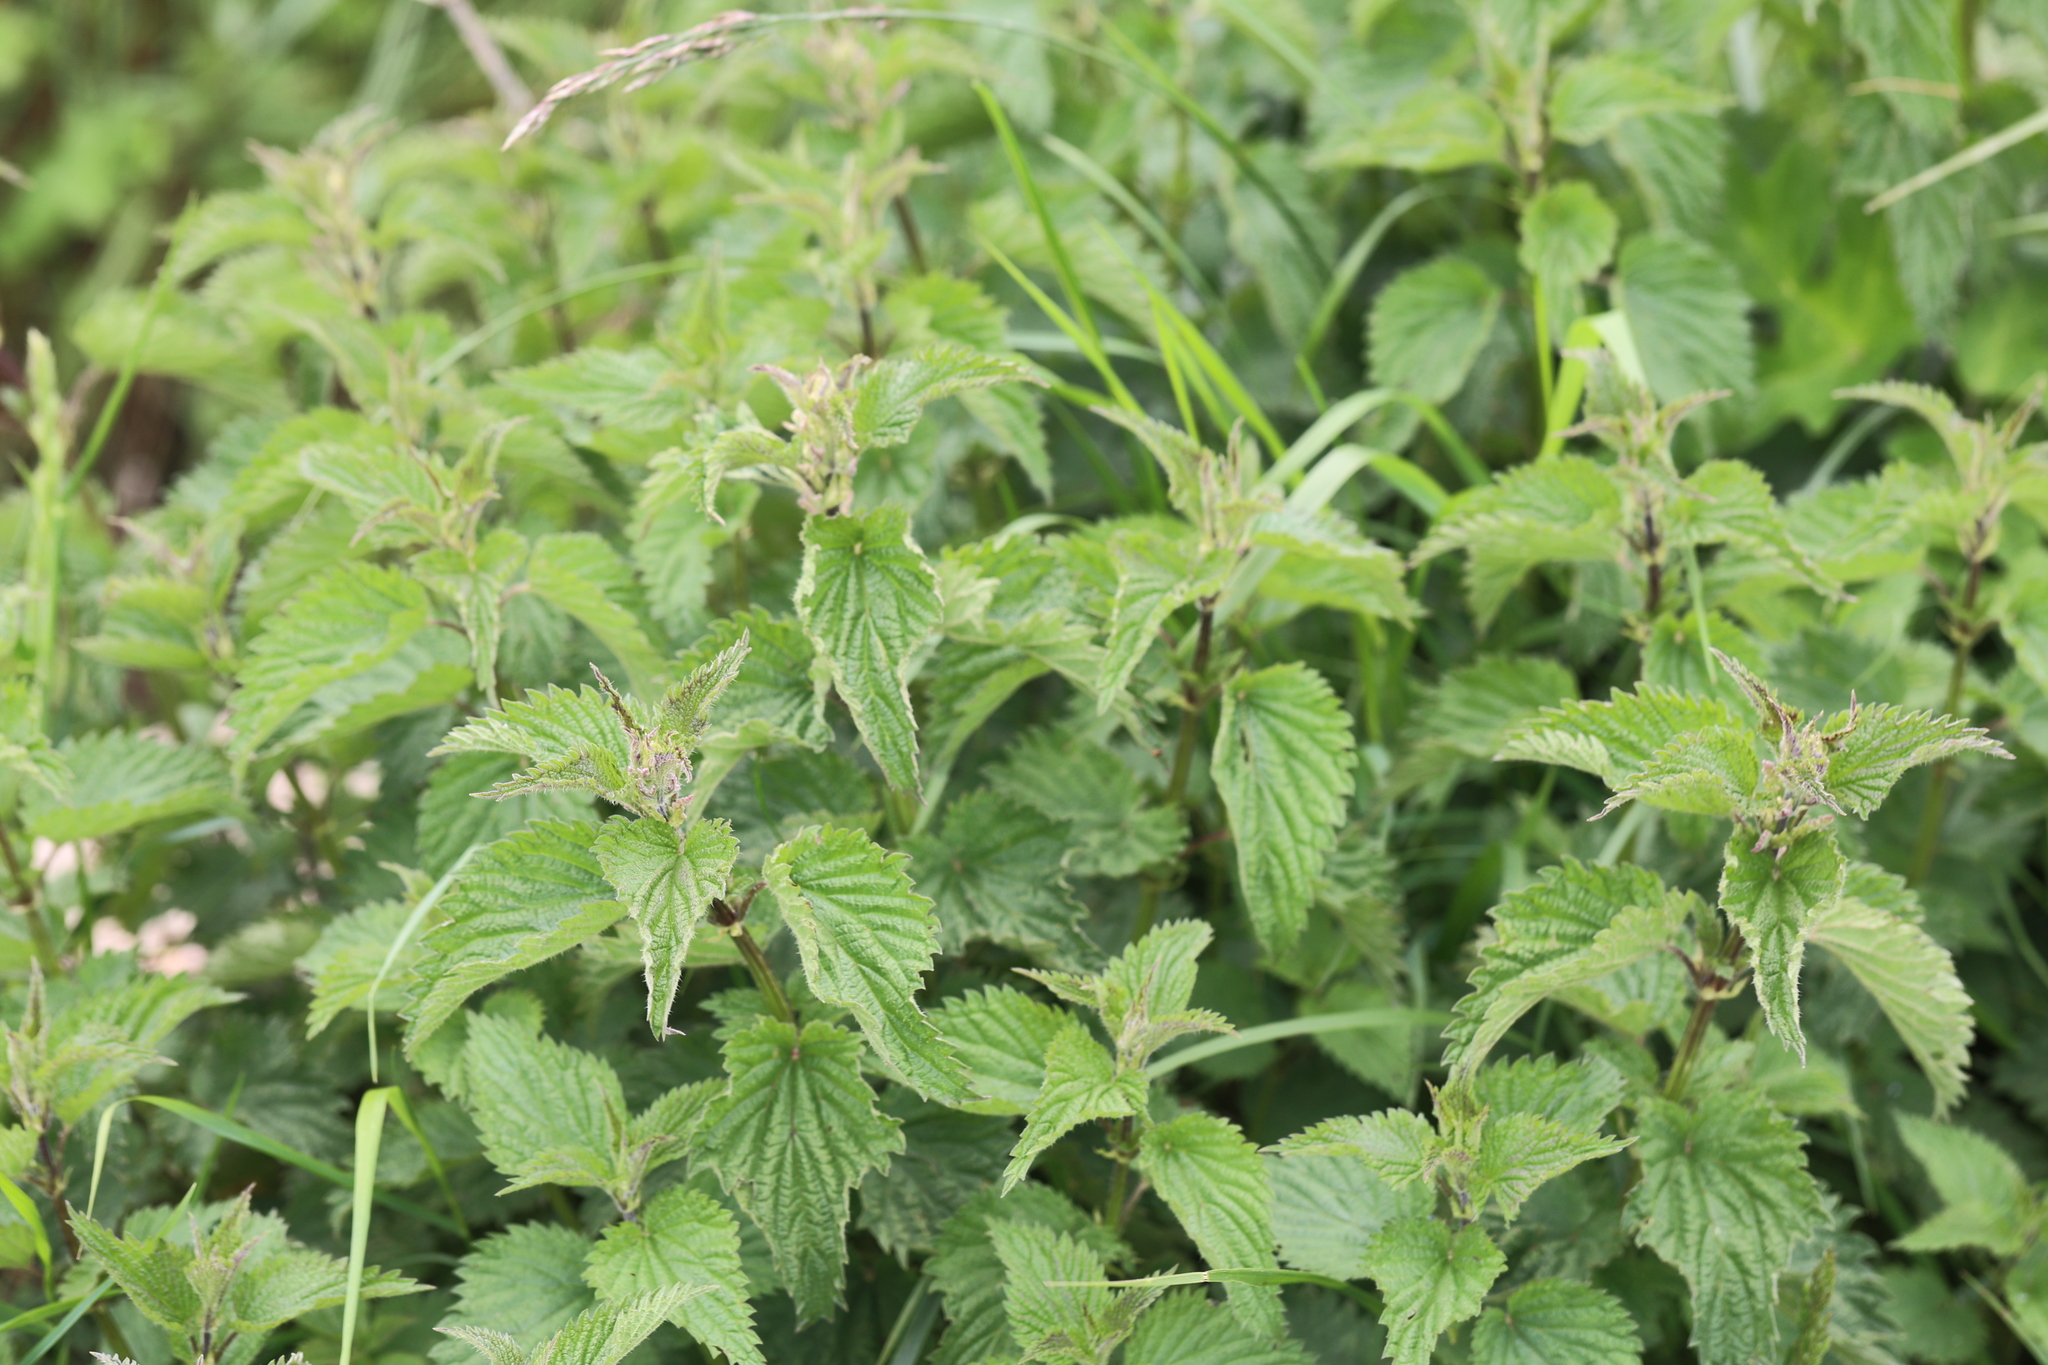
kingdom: Plantae
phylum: Tracheophyta
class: Magnoliopsida
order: Rosales
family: Urticaceae
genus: Urtica
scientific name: Urtica dioica
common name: Common nettle
